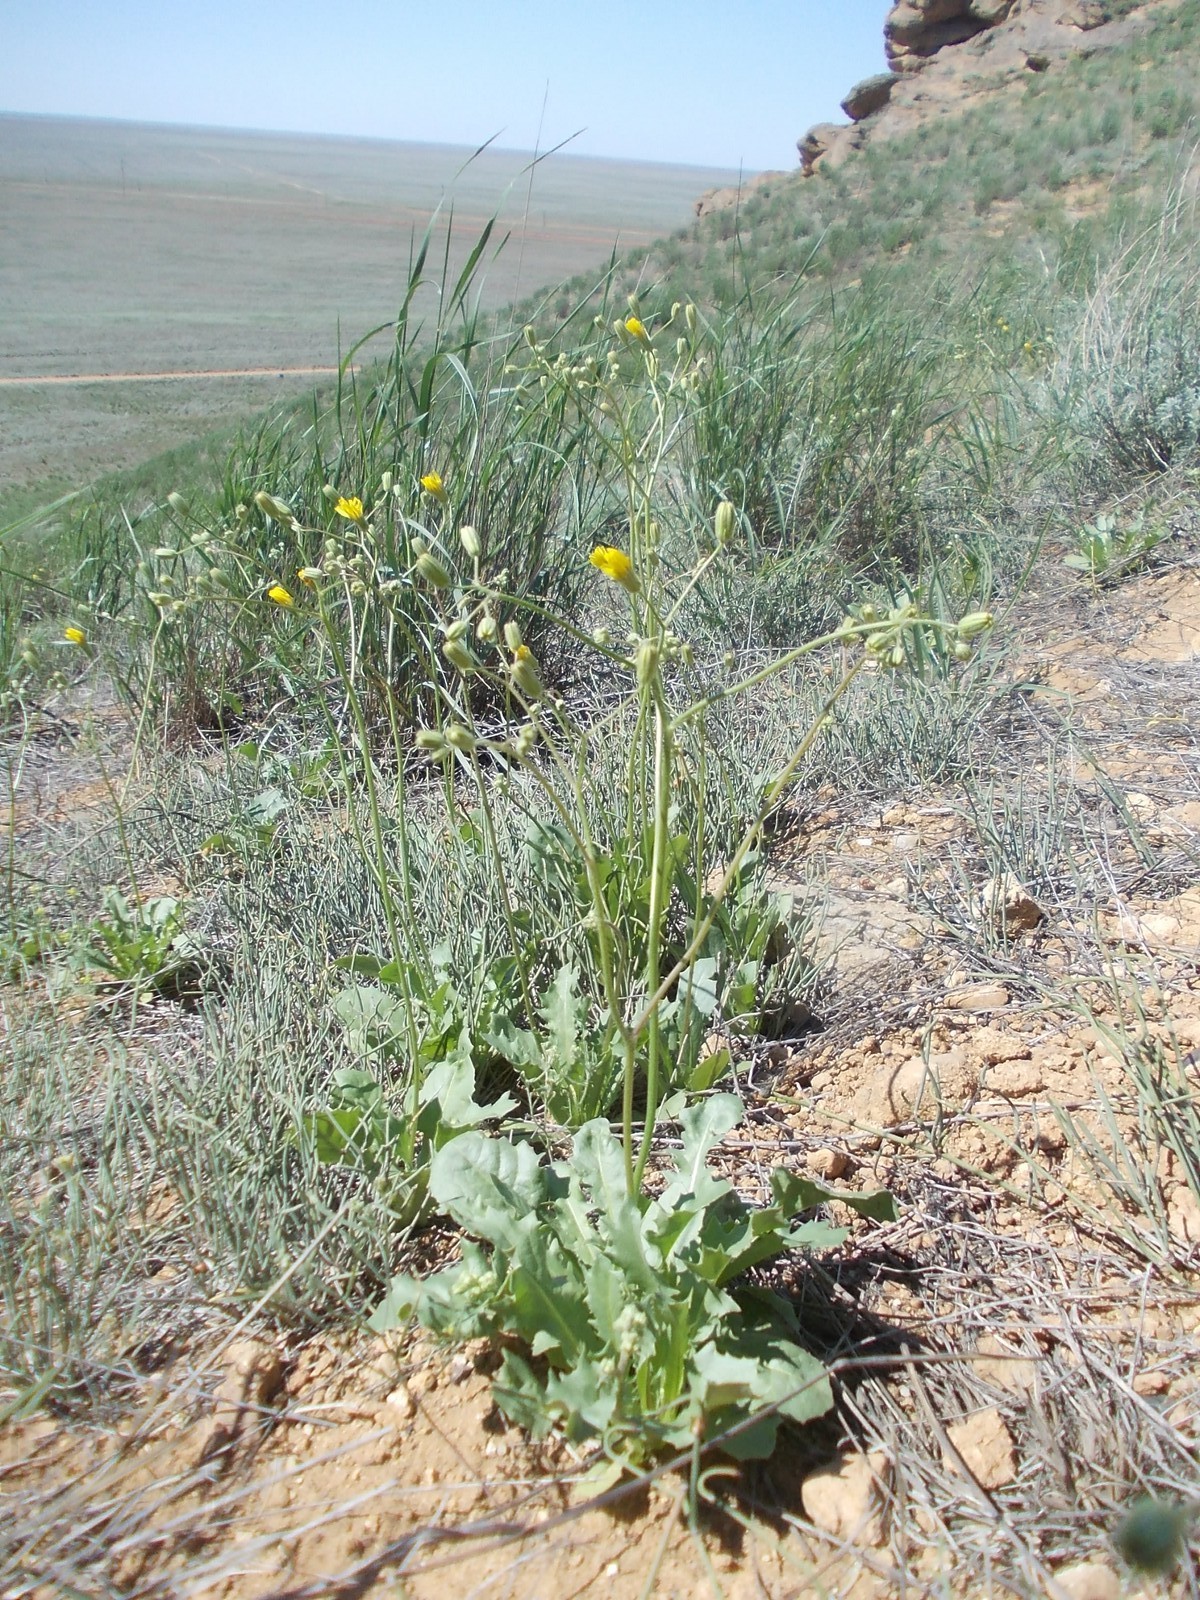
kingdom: Plantae
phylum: Tracheophyta
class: Magnoliopsida
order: Asterales
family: Asteraceae
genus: Crepis
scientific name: Crepis sancta
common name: Hawk's-beard
